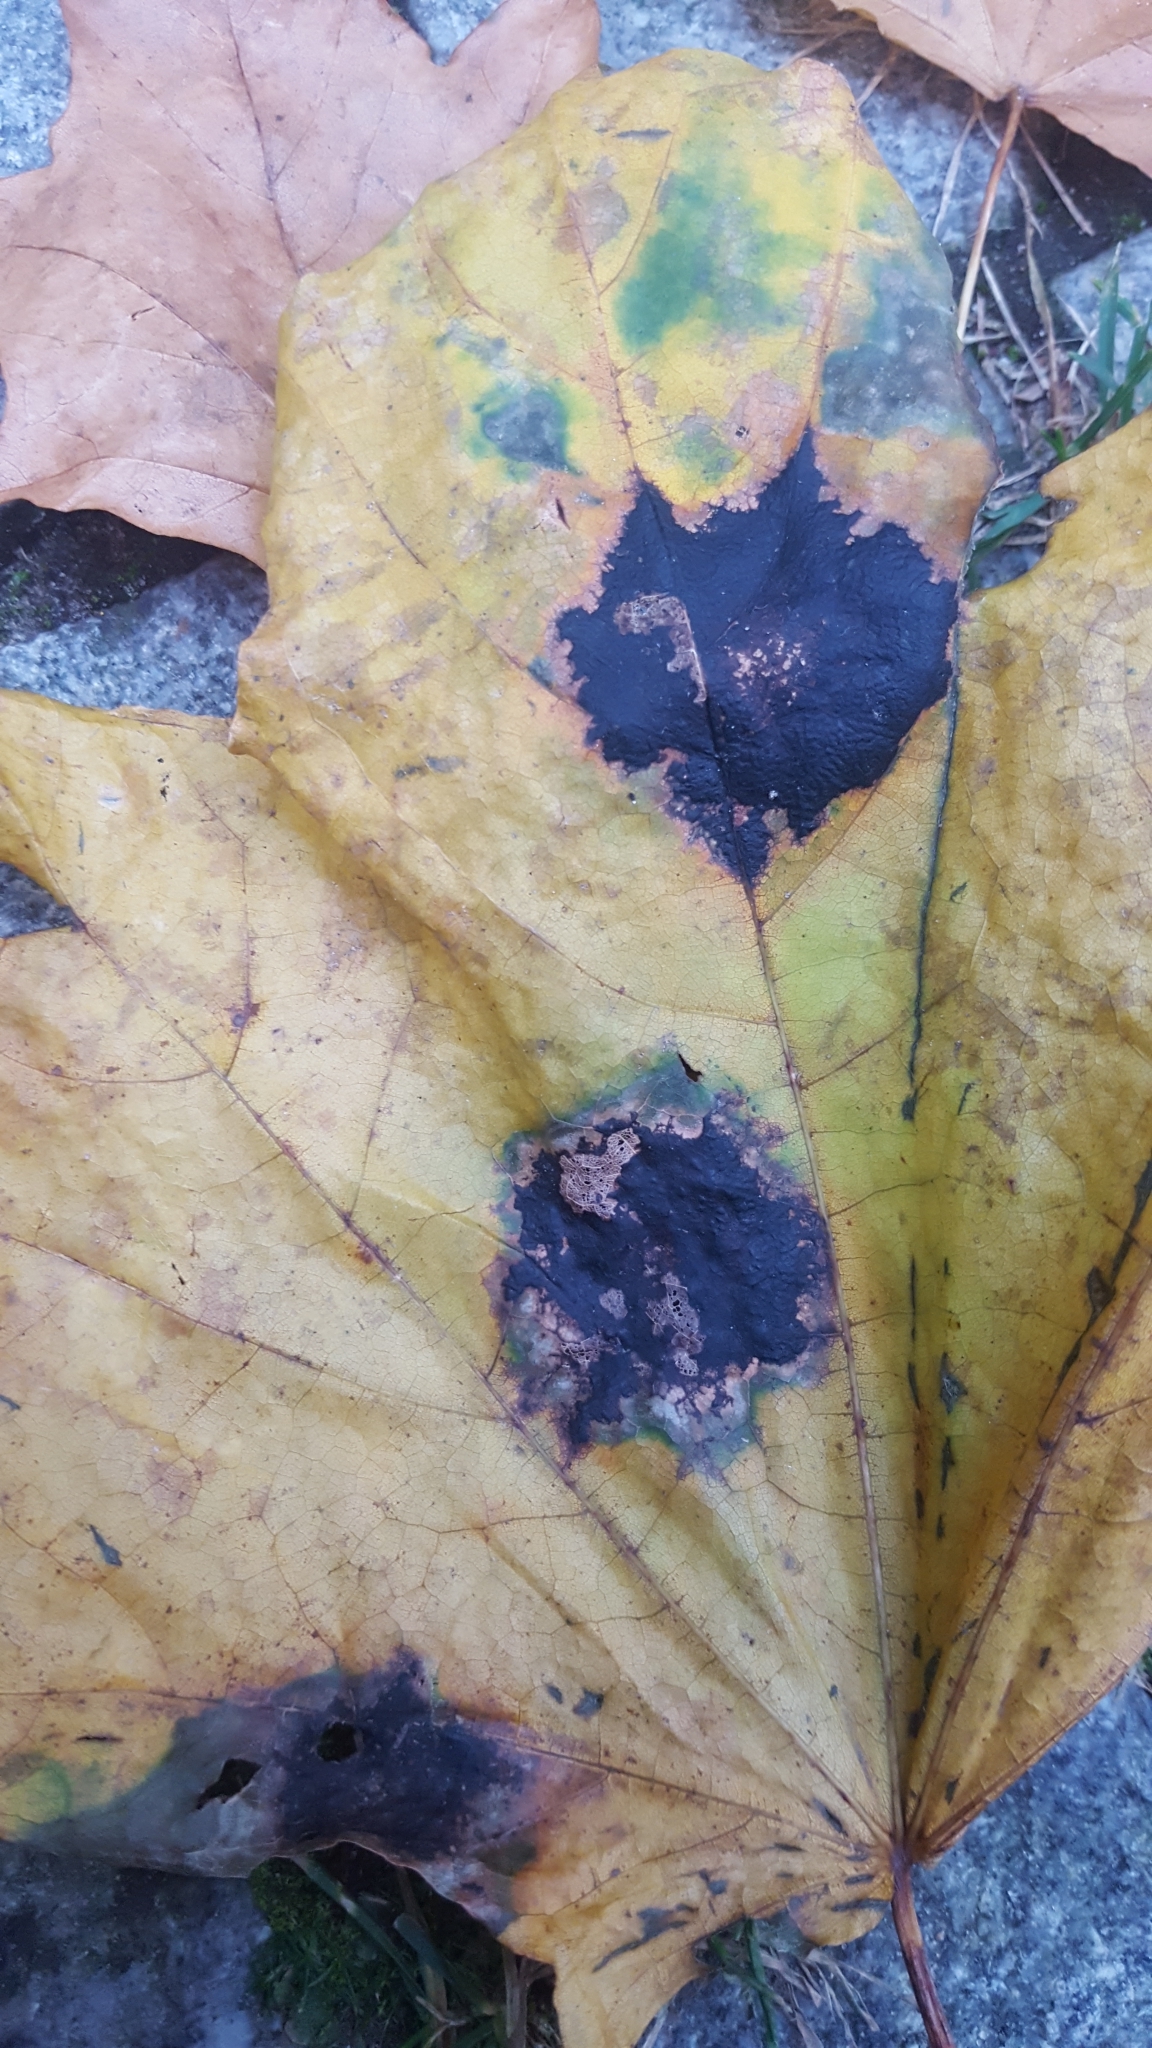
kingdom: Fungi
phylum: Ascomycota
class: Leotiomycetes
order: Rhytismatales
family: Rhytismataceae
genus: Rhytisma
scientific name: Rhytisma acerinum
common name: European tar spot
